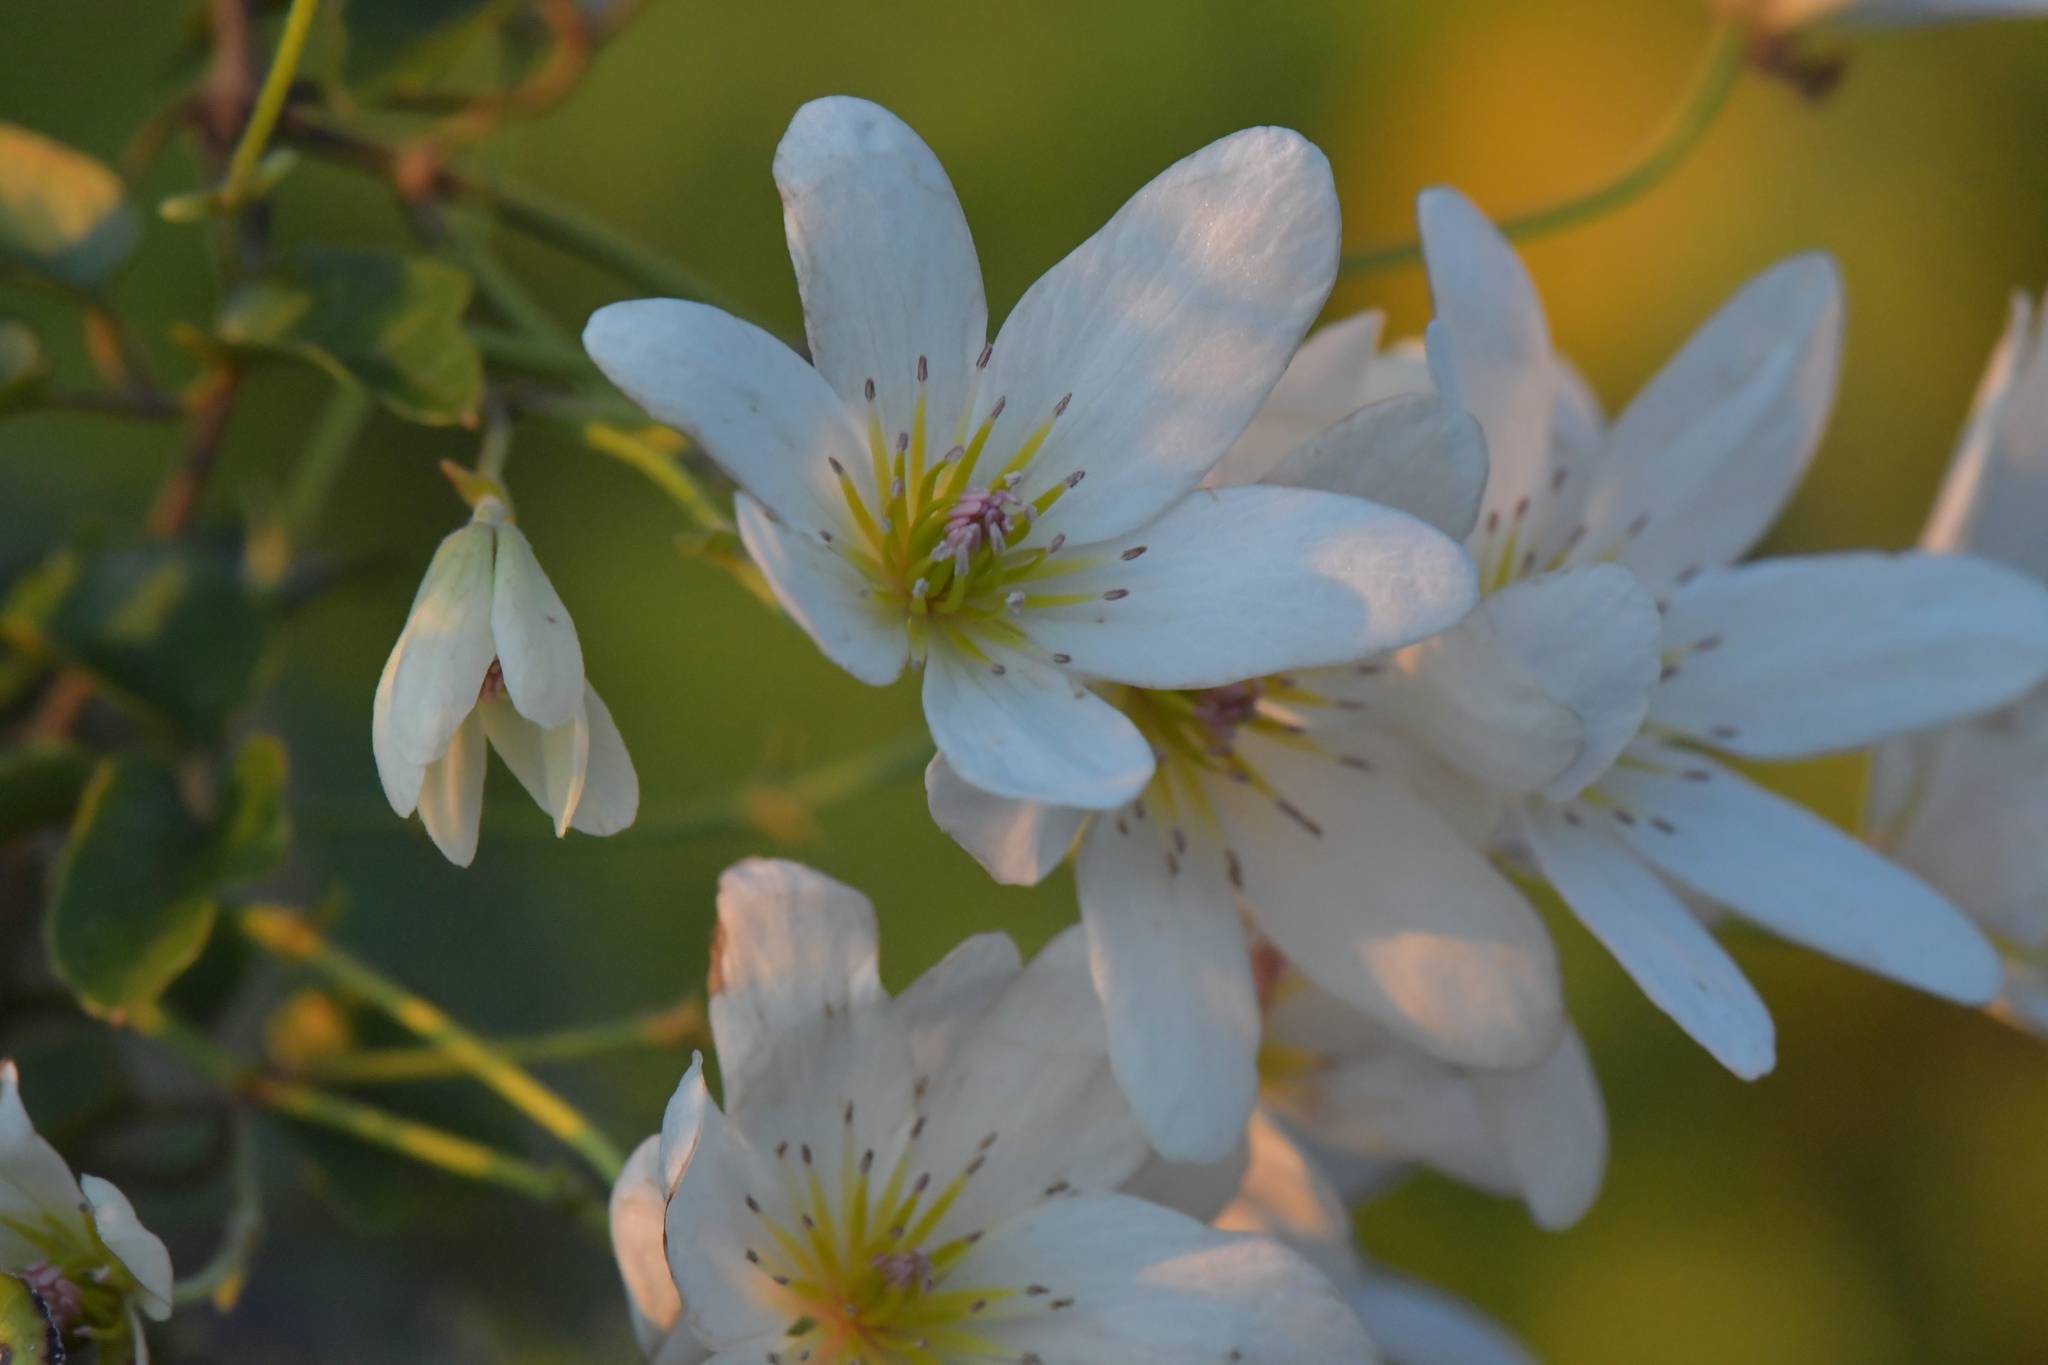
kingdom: Plantae
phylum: Tracheophyta
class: Magnoliopsida
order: Ranunculales
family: Ranunculaceae
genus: Clematis
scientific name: Clematis paniculata
